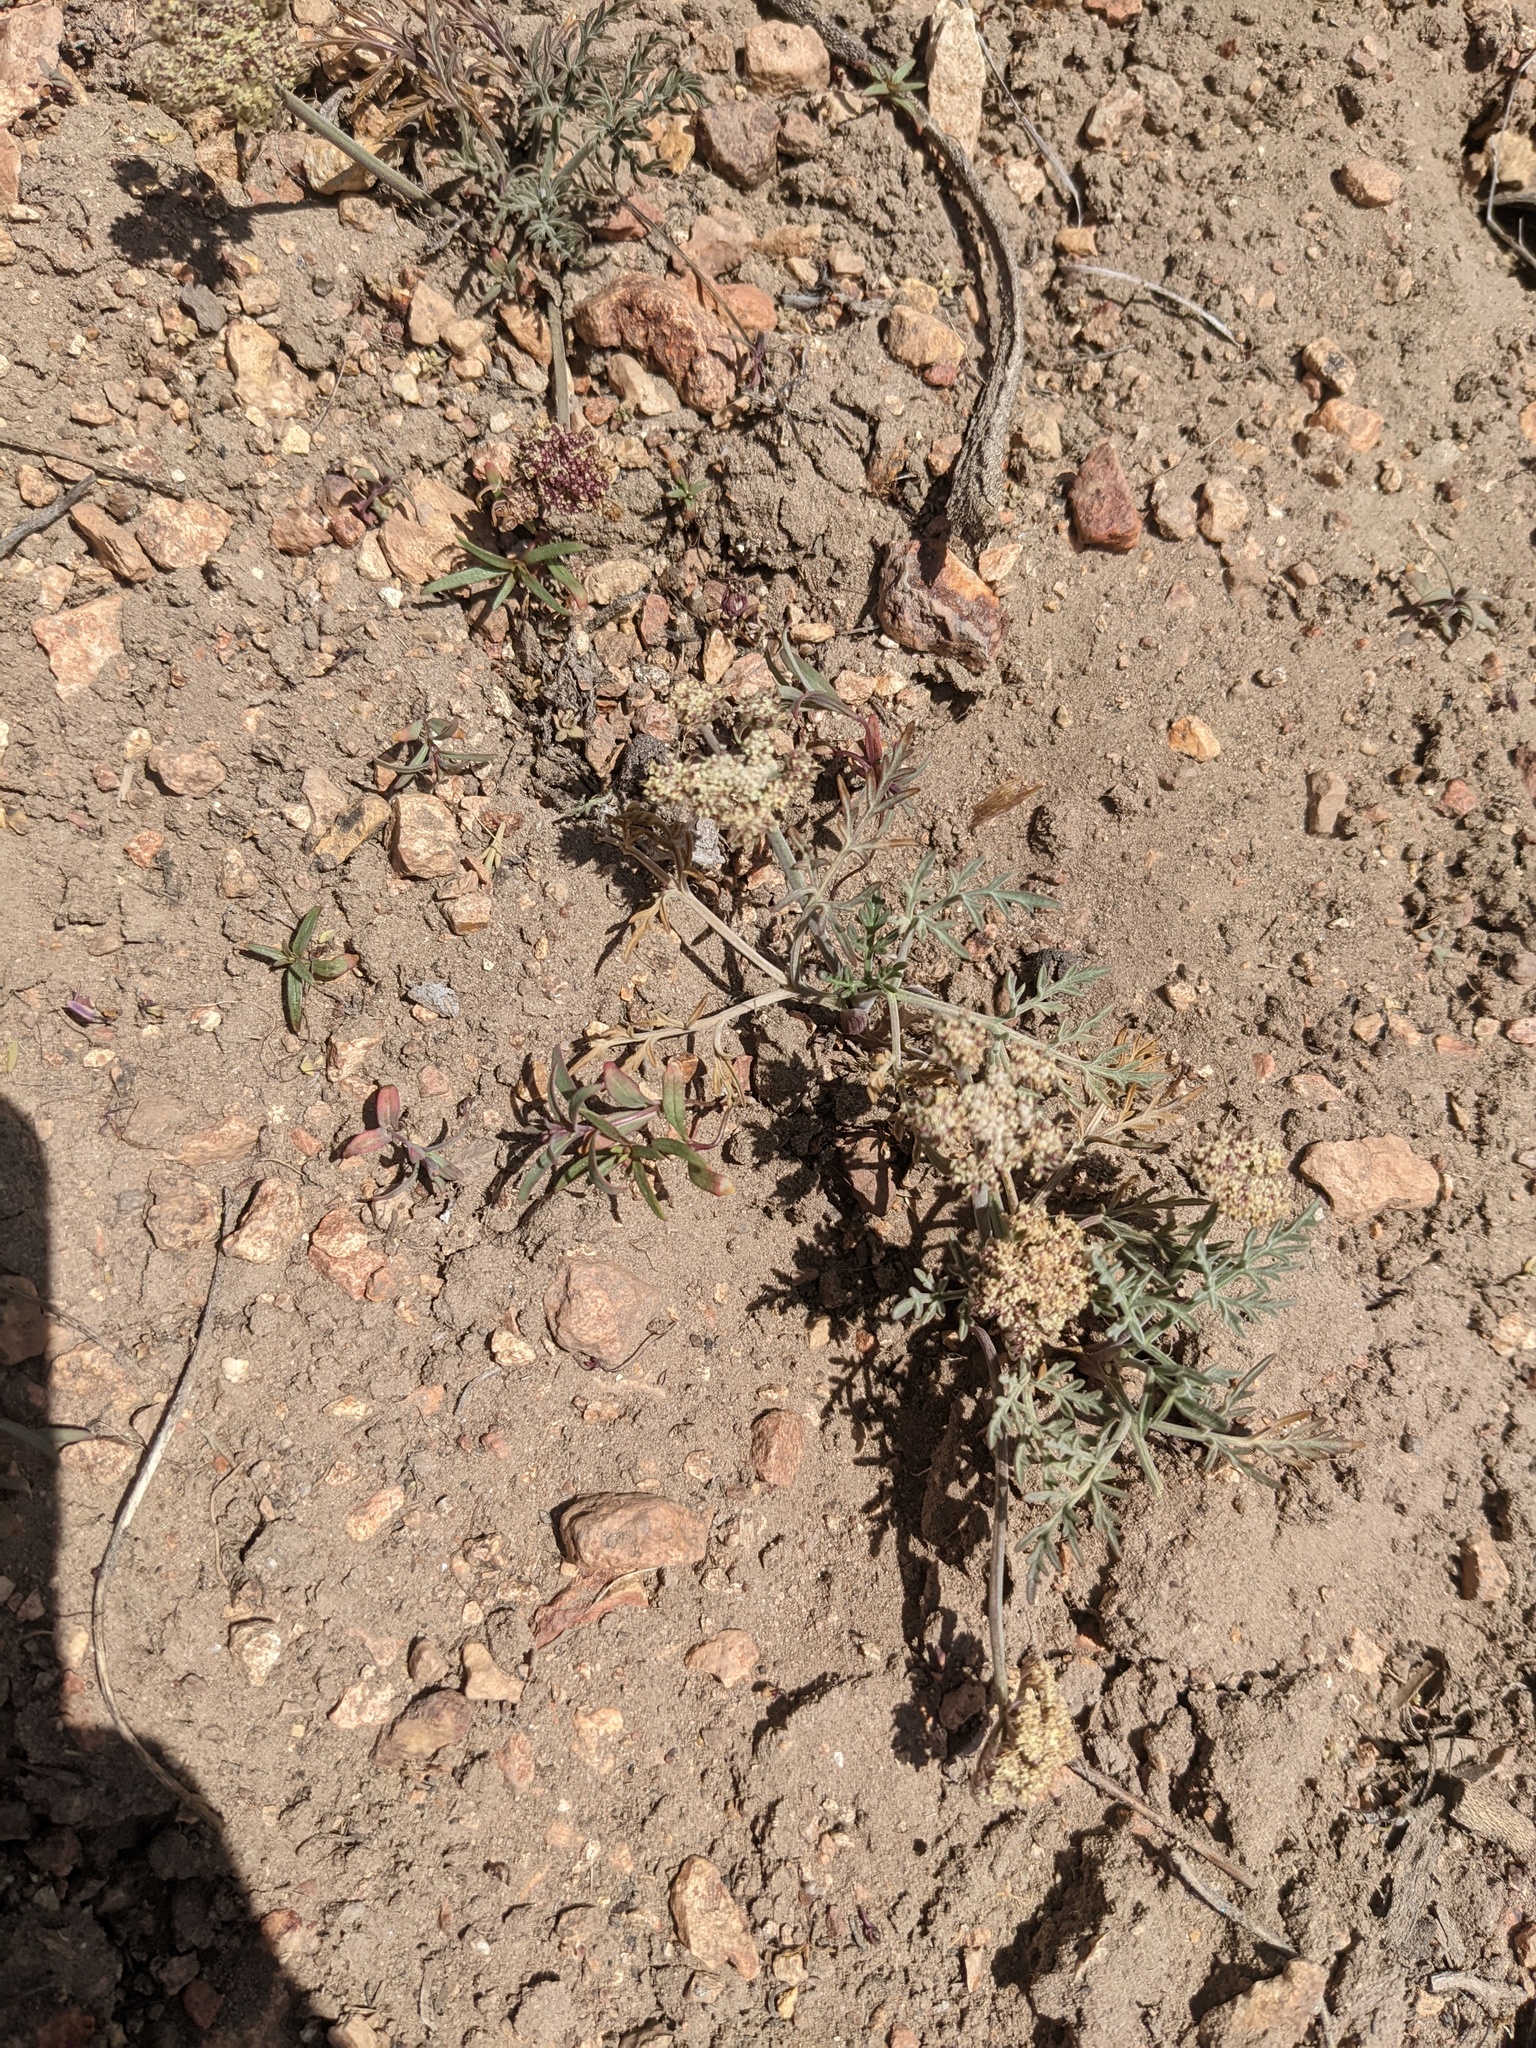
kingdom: Plantae
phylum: Tracheophyta
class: Magnoliopsida
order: Apiales
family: Apiaceae
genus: Lomatium
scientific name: Lomatium nevadense
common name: Nevada lomatium
